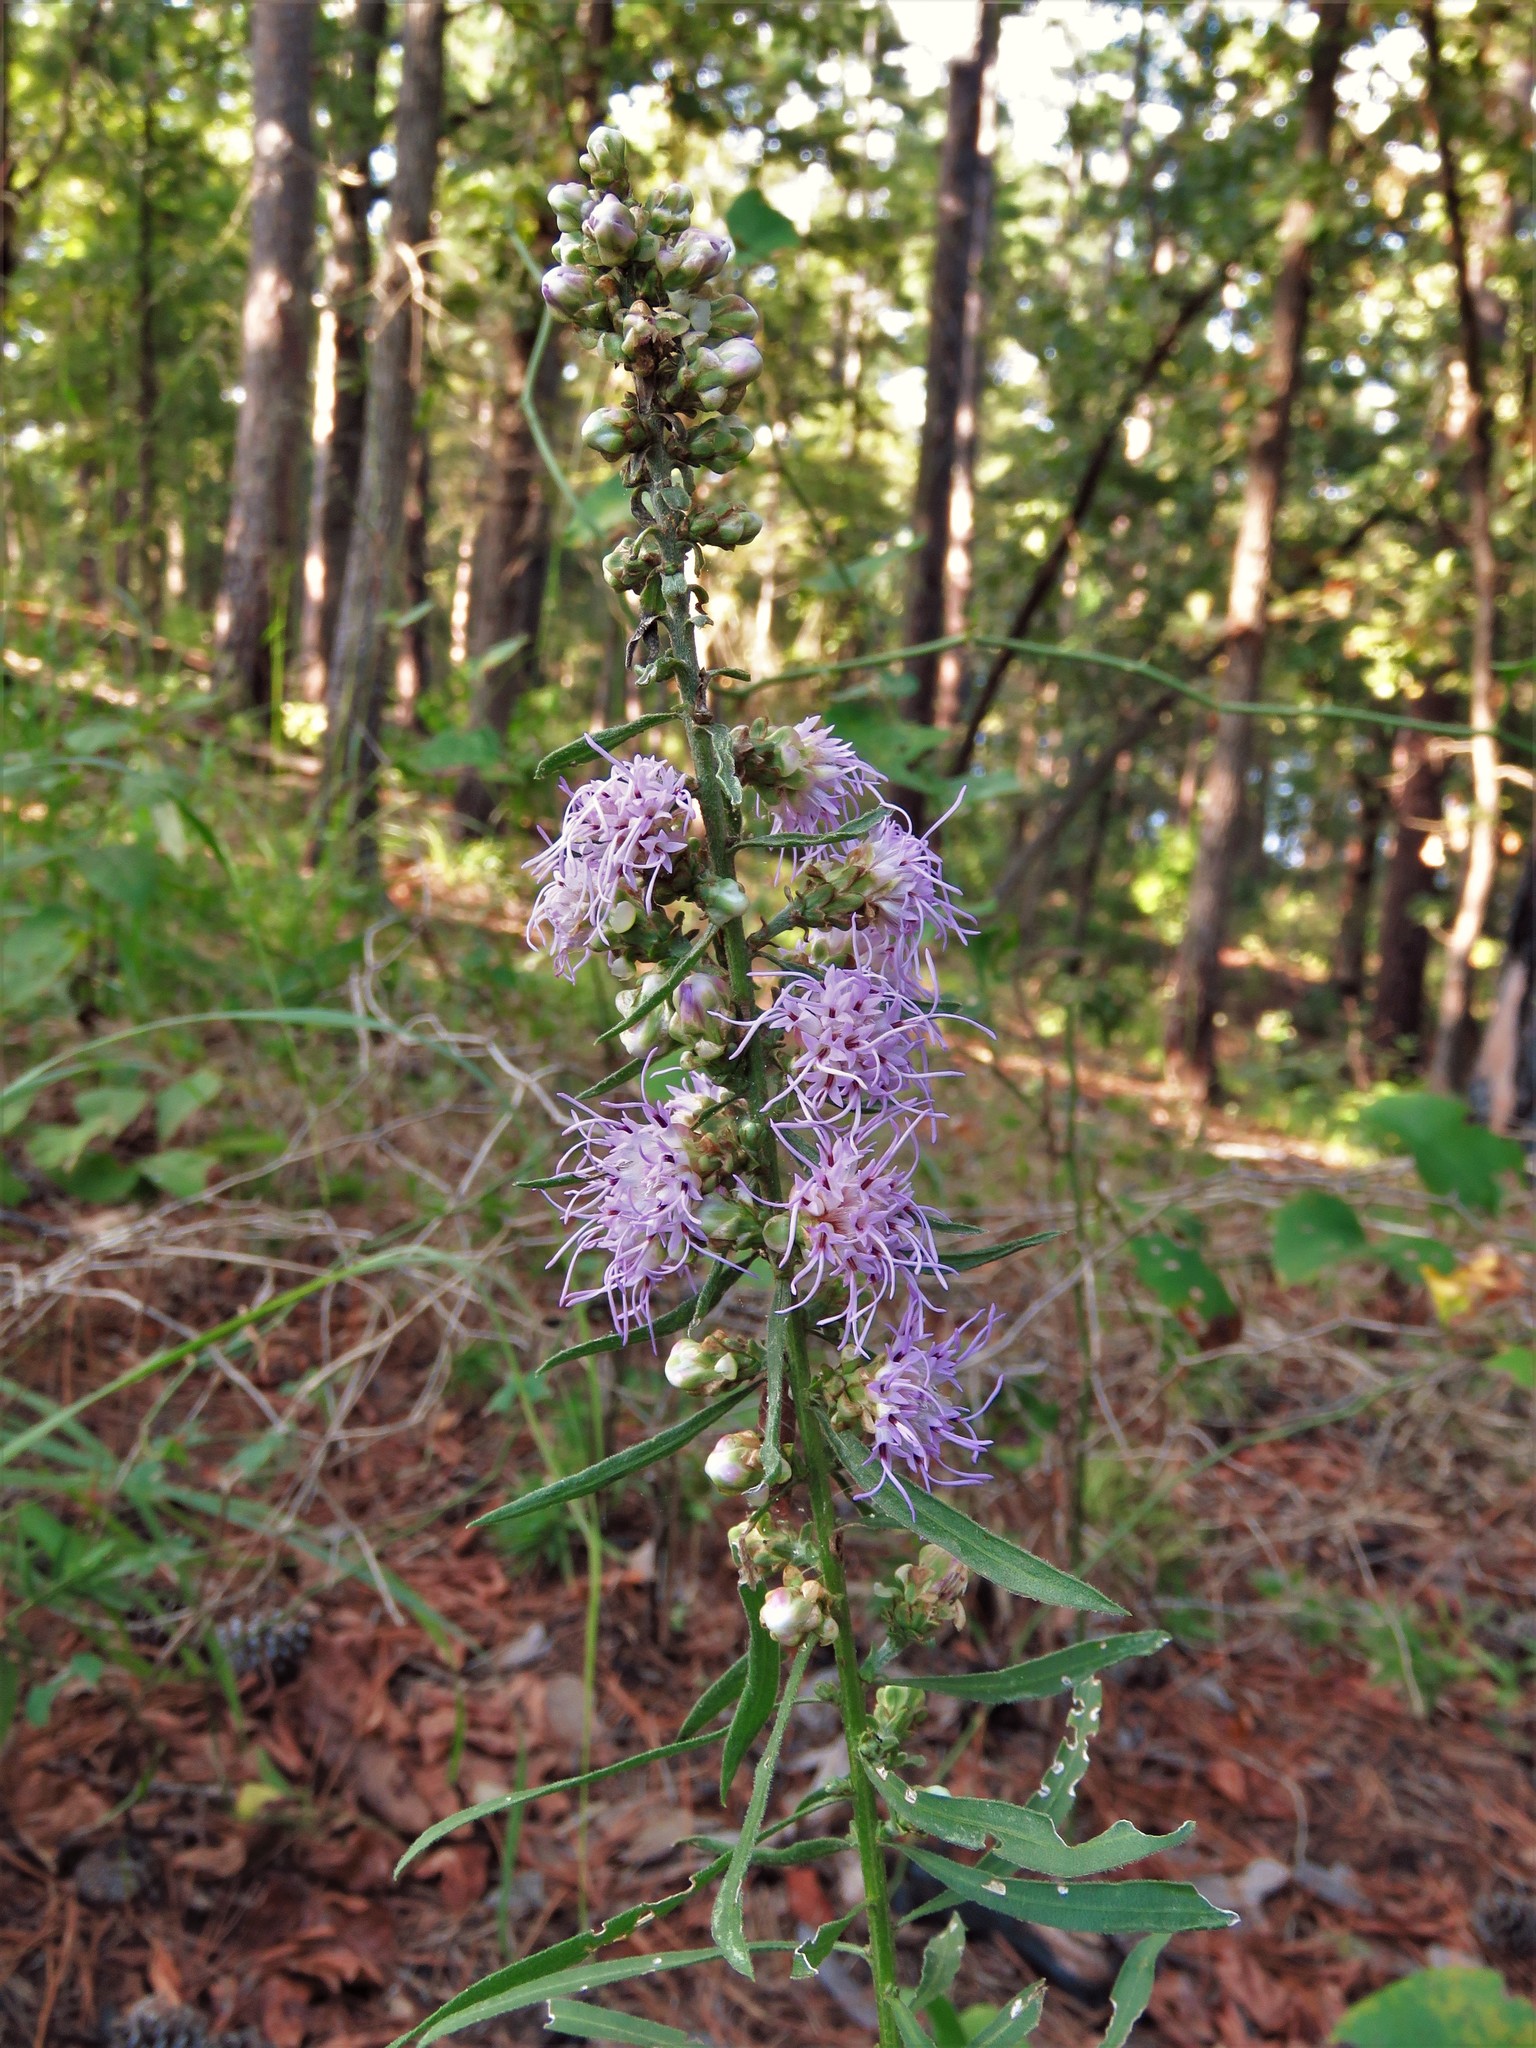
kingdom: Plantae
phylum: Tracheophyta
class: Magnoliopsida
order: Asterales
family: Asteraceae
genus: Liatris
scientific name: Liatris aspera
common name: Lacerate blazing-star
